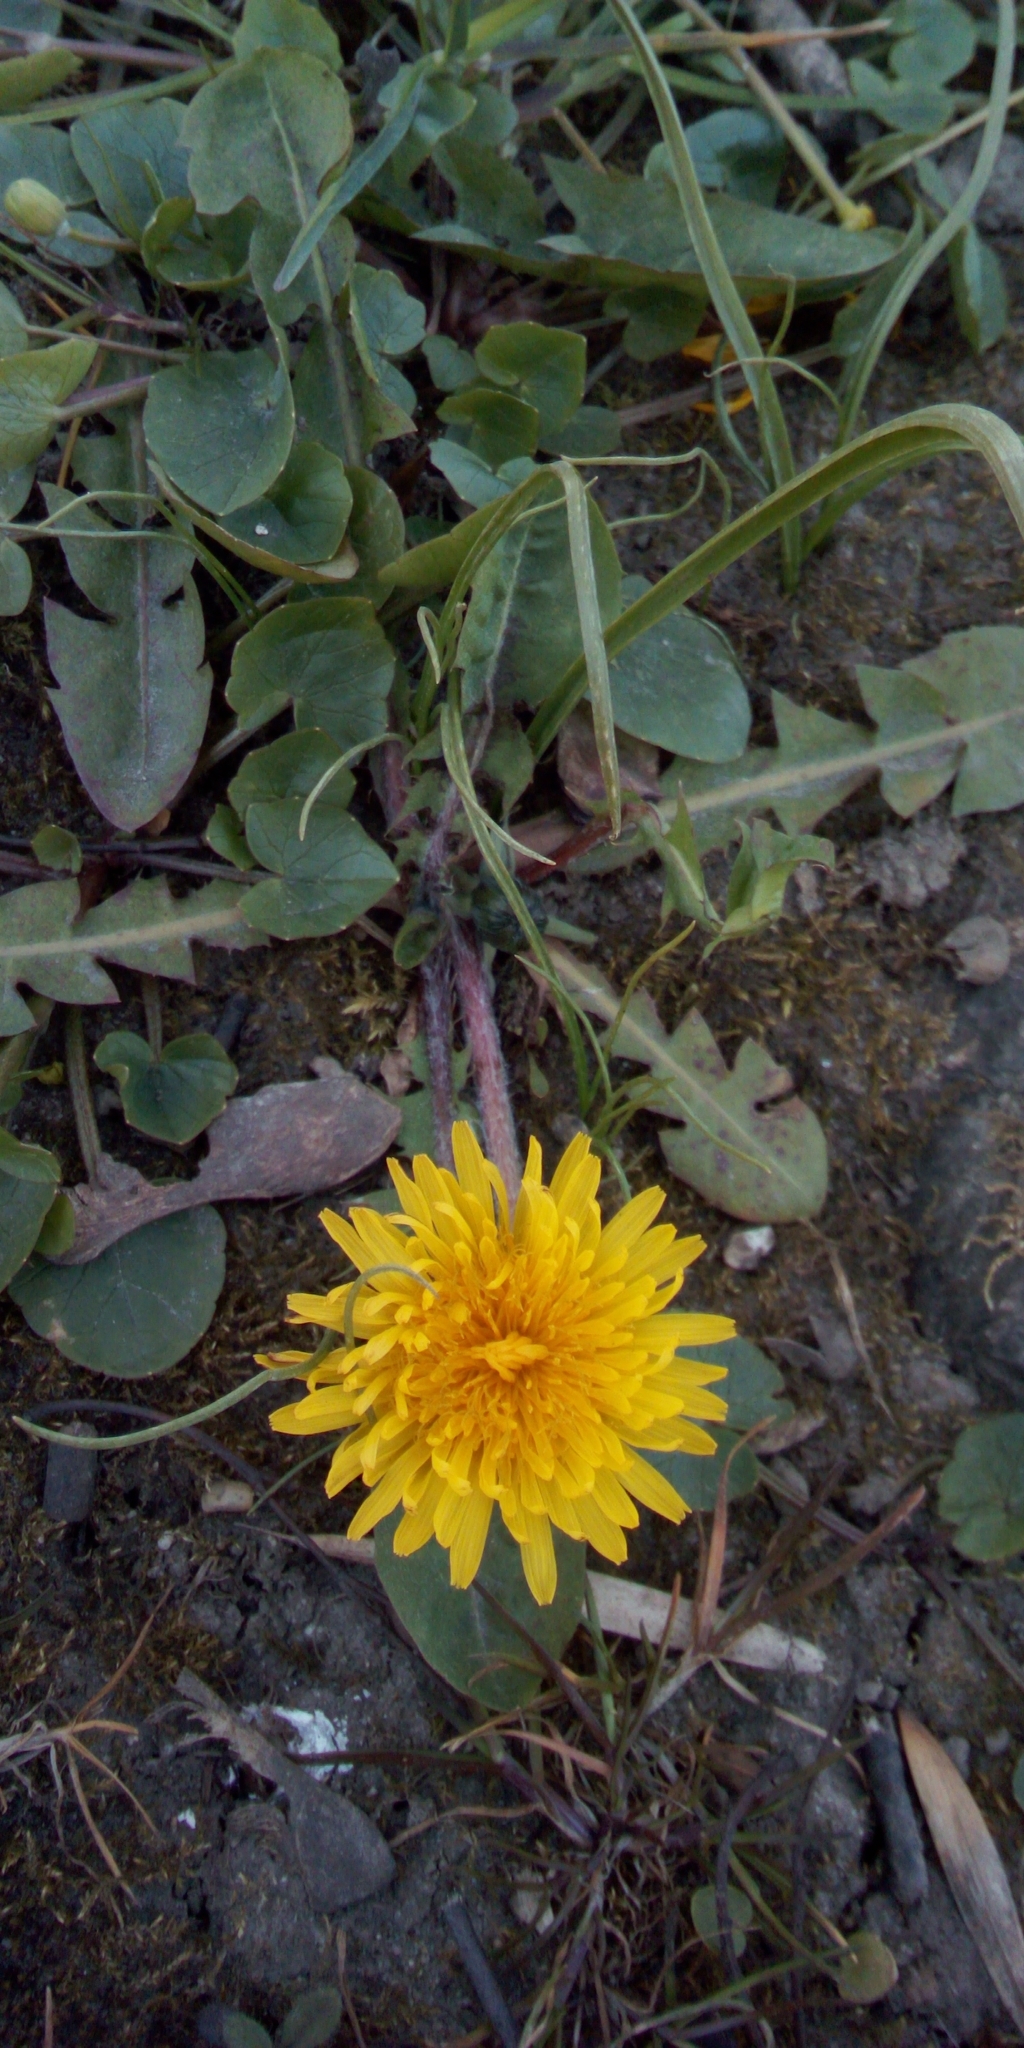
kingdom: Plantae
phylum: Tracheophyta
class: Magnoliopsida
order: Asterales
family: Asteraceae
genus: Taraxacum
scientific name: Taraxacum officinale
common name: Common dandelion
